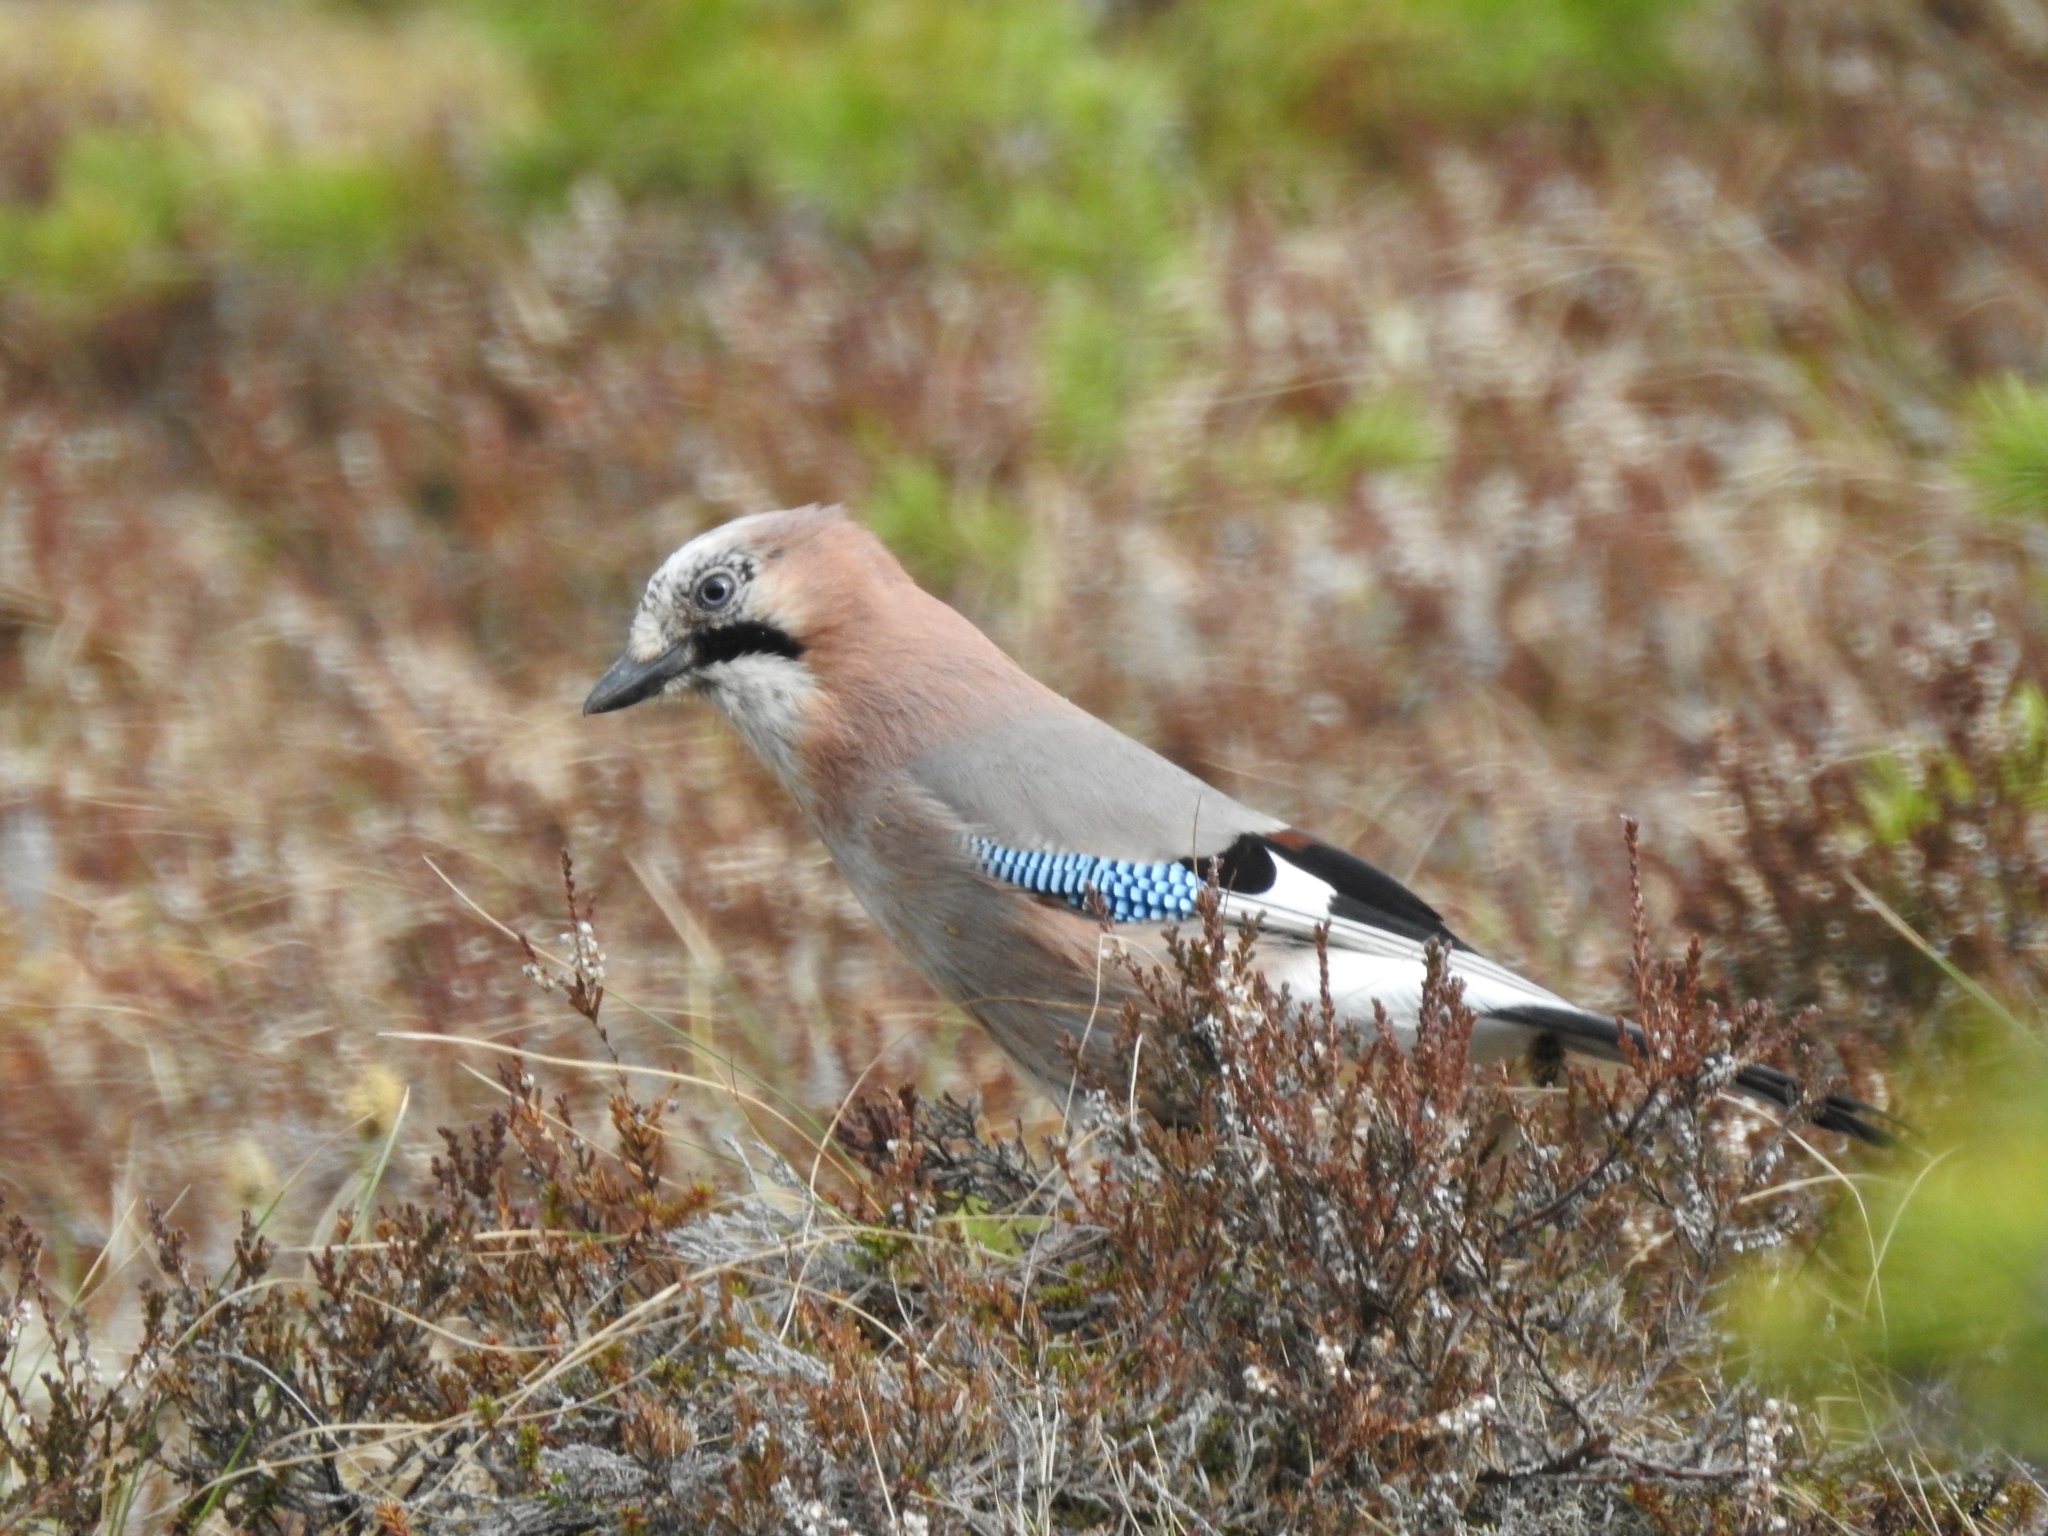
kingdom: Animalia
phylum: Chordata
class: Aves
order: Passeriformes
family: Corvidae
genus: Garrulus
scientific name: Garrulus glandarius
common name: Eurasian jay
